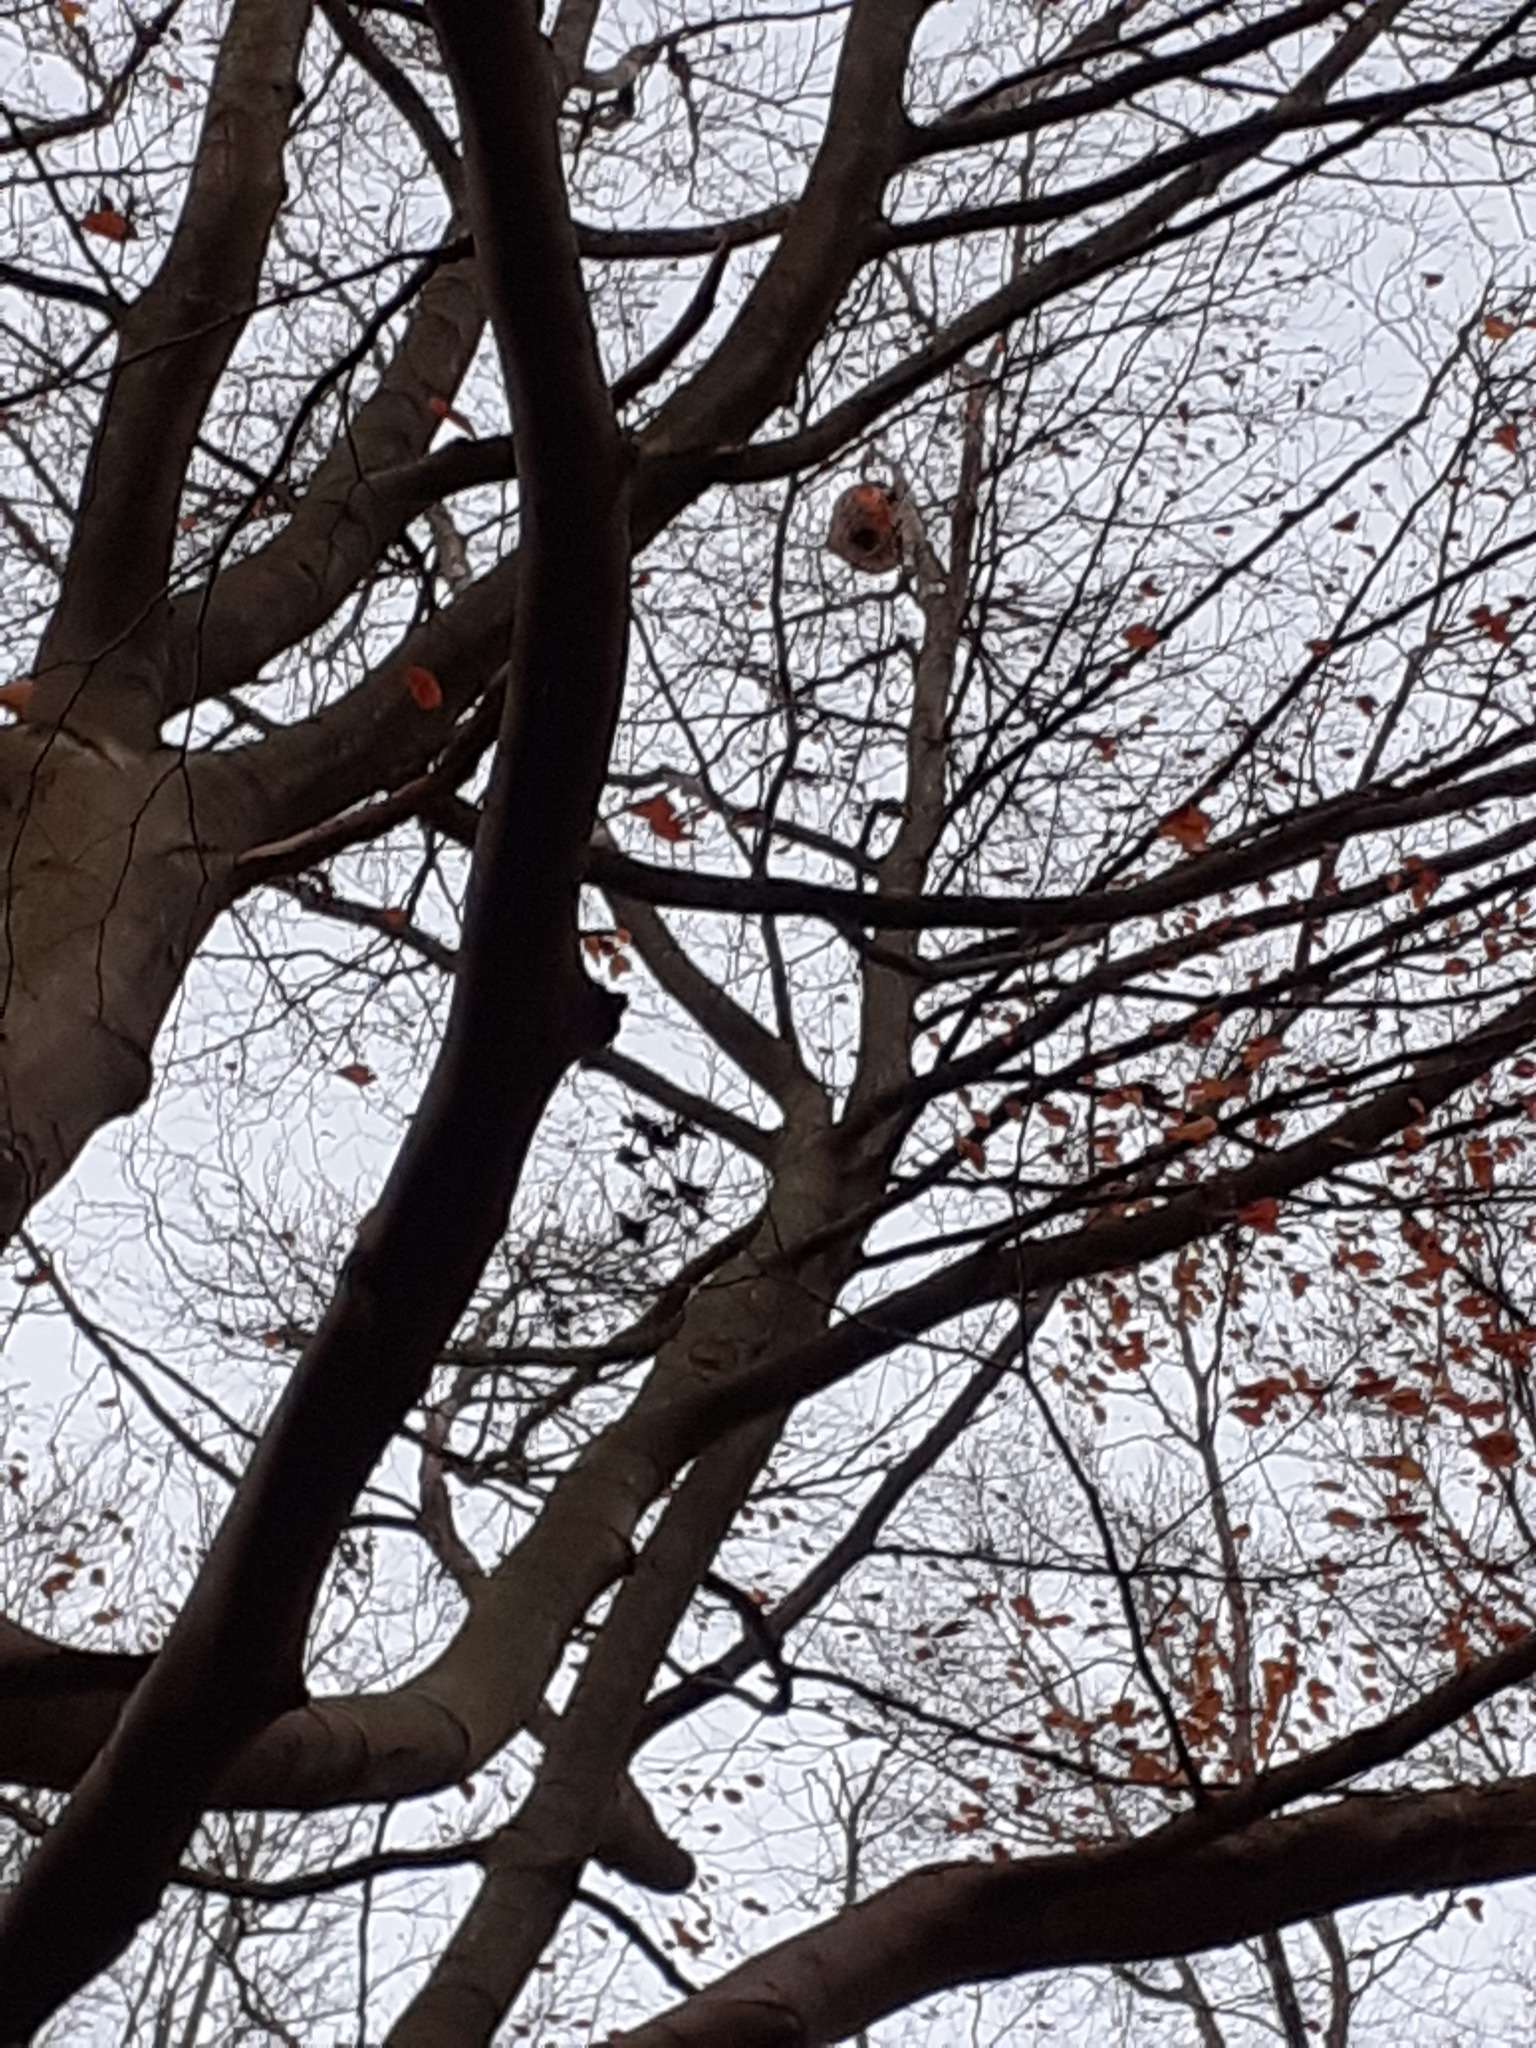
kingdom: Animalia
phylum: Arthropoda
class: Insecta
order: Hymenoptera
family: Vespidae
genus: Vespa
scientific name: Vespa velutina
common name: Asian hornet
